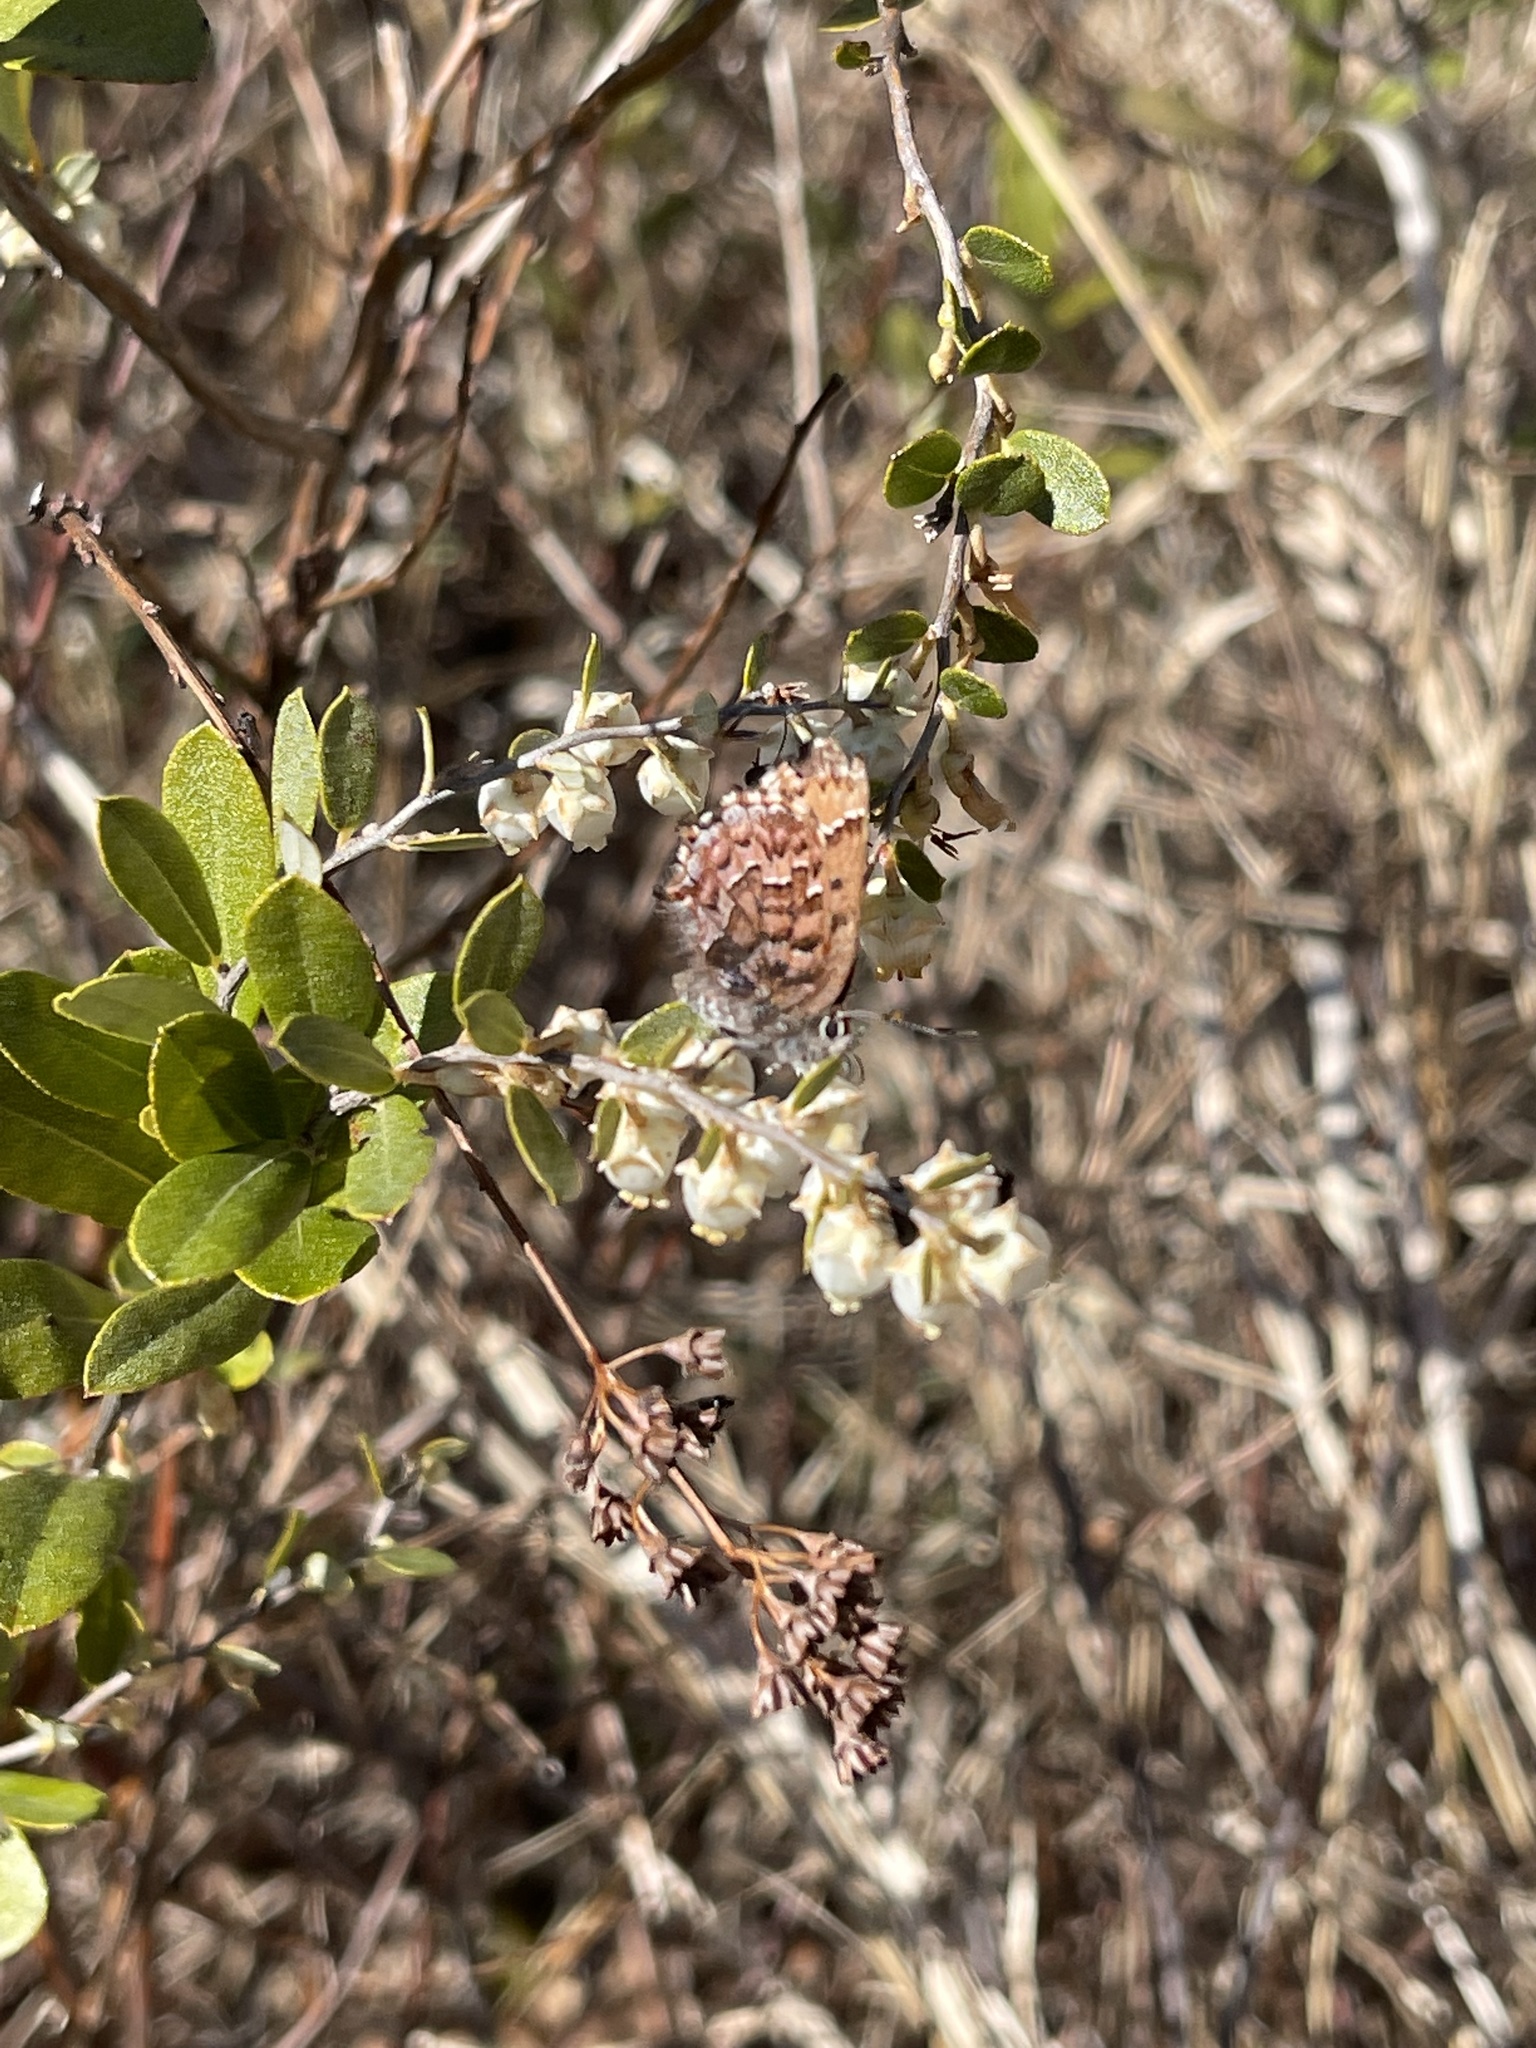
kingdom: Animalia
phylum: Arthropoda
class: Insecta
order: Lepidoptera
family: Lycaenidae
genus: Incisalia
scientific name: Incisalia niphon
